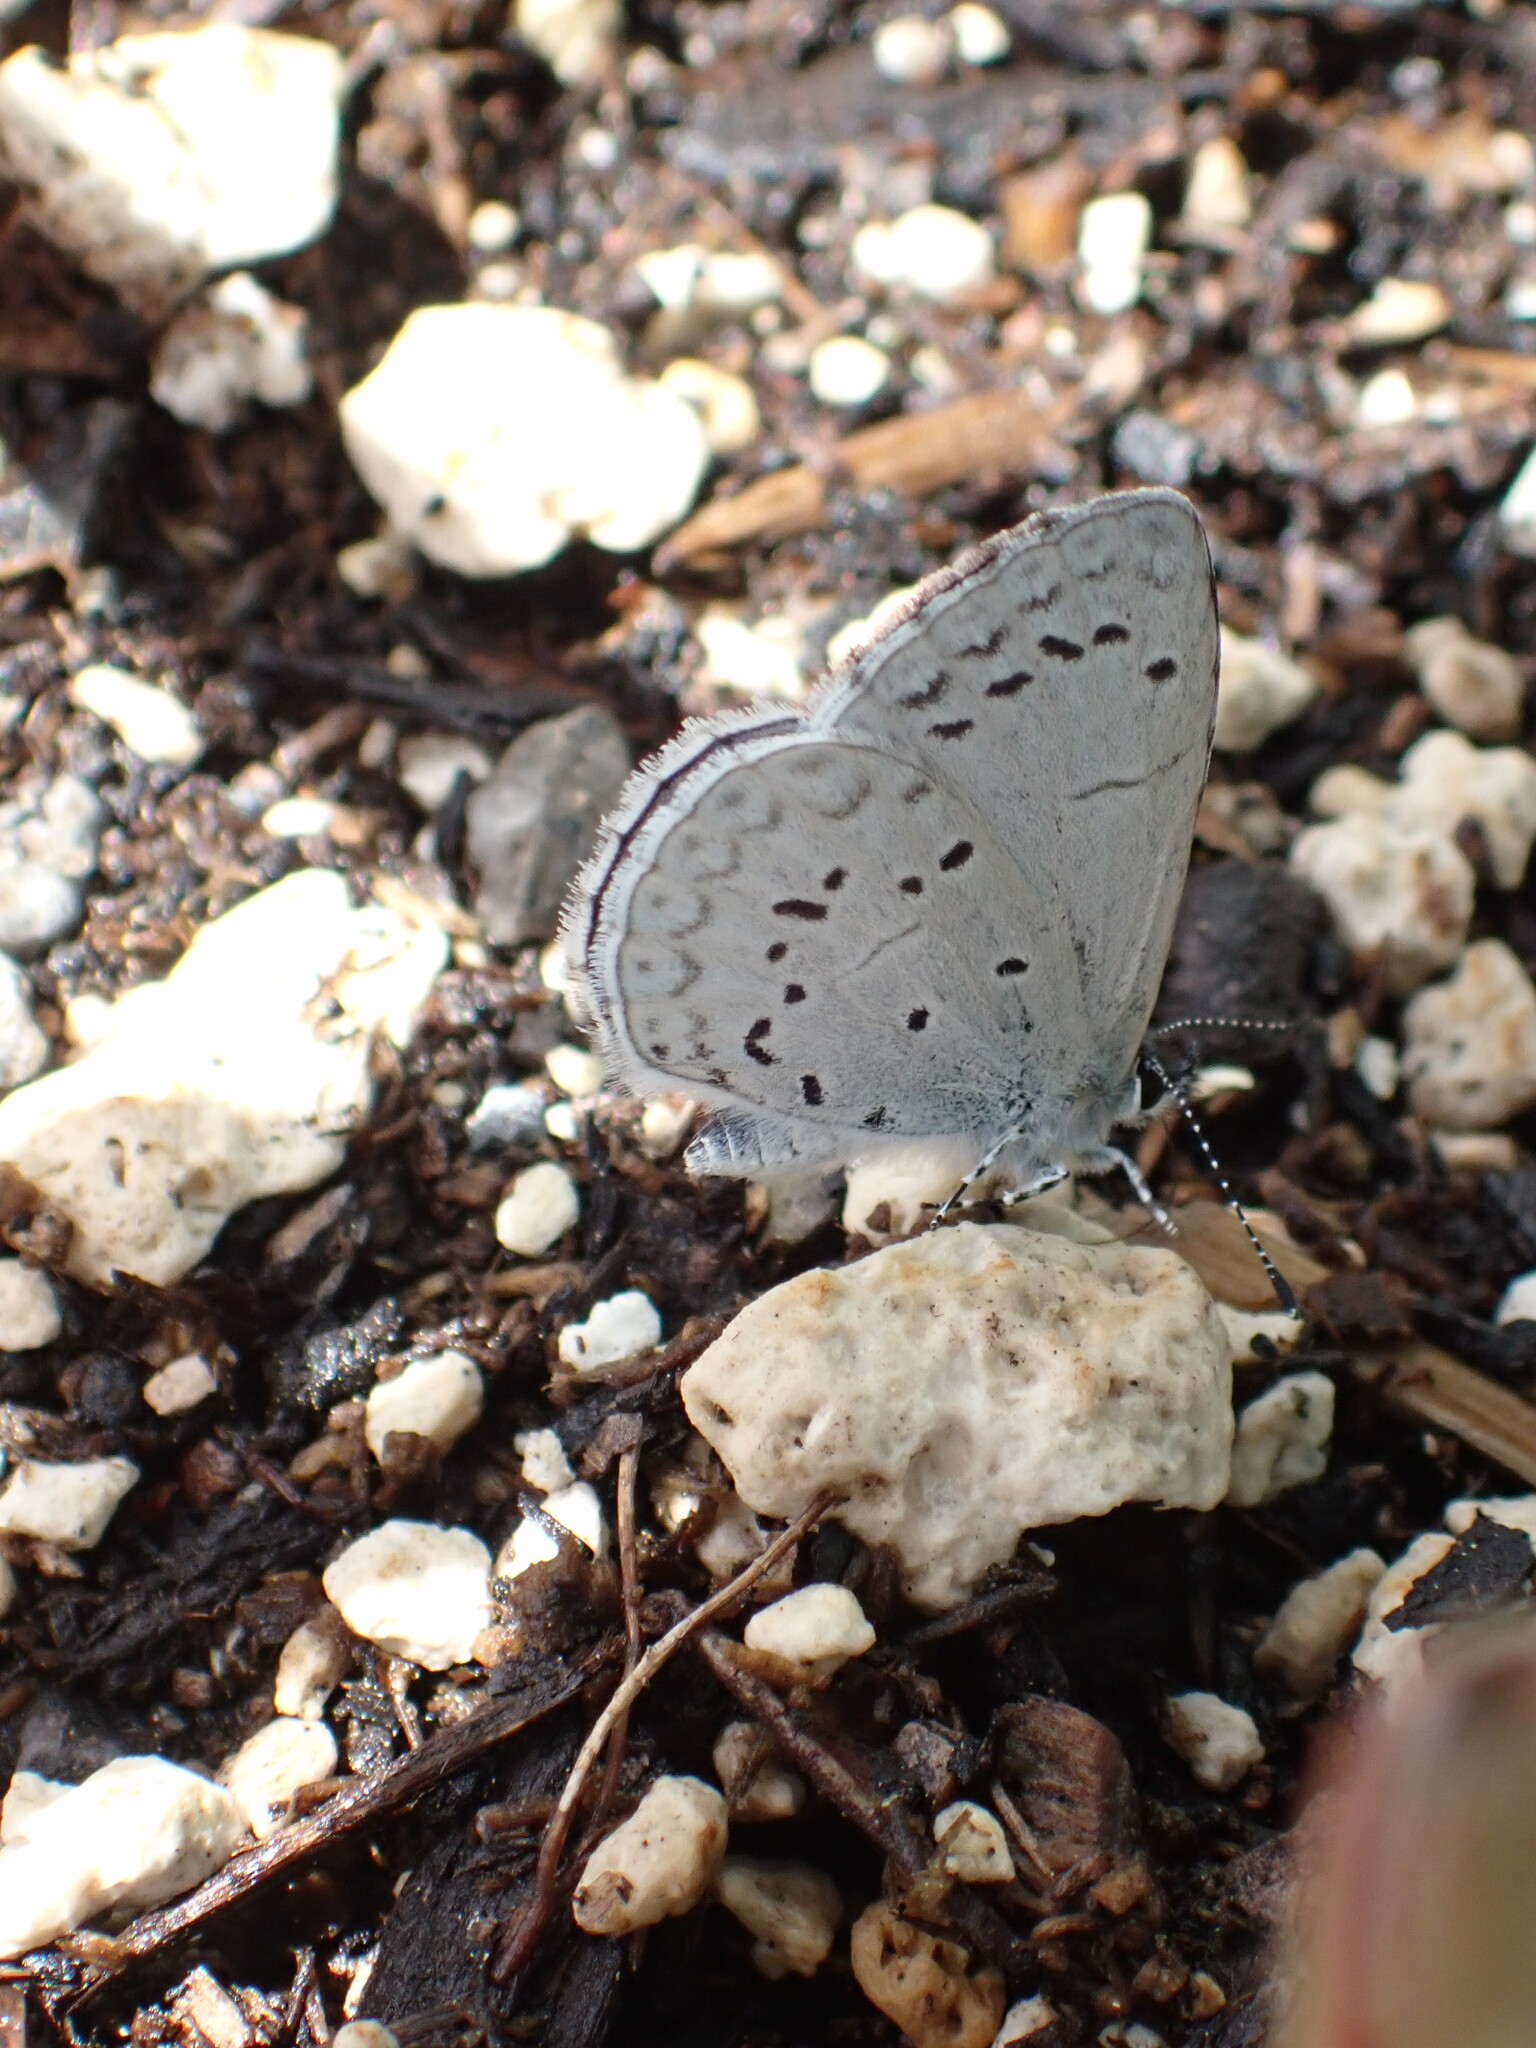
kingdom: Animalia
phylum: Arthropoda
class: Insecta
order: Lepidoptera
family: Lycaenidae
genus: Celastrina
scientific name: Celastrina ladon
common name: Spring azure
